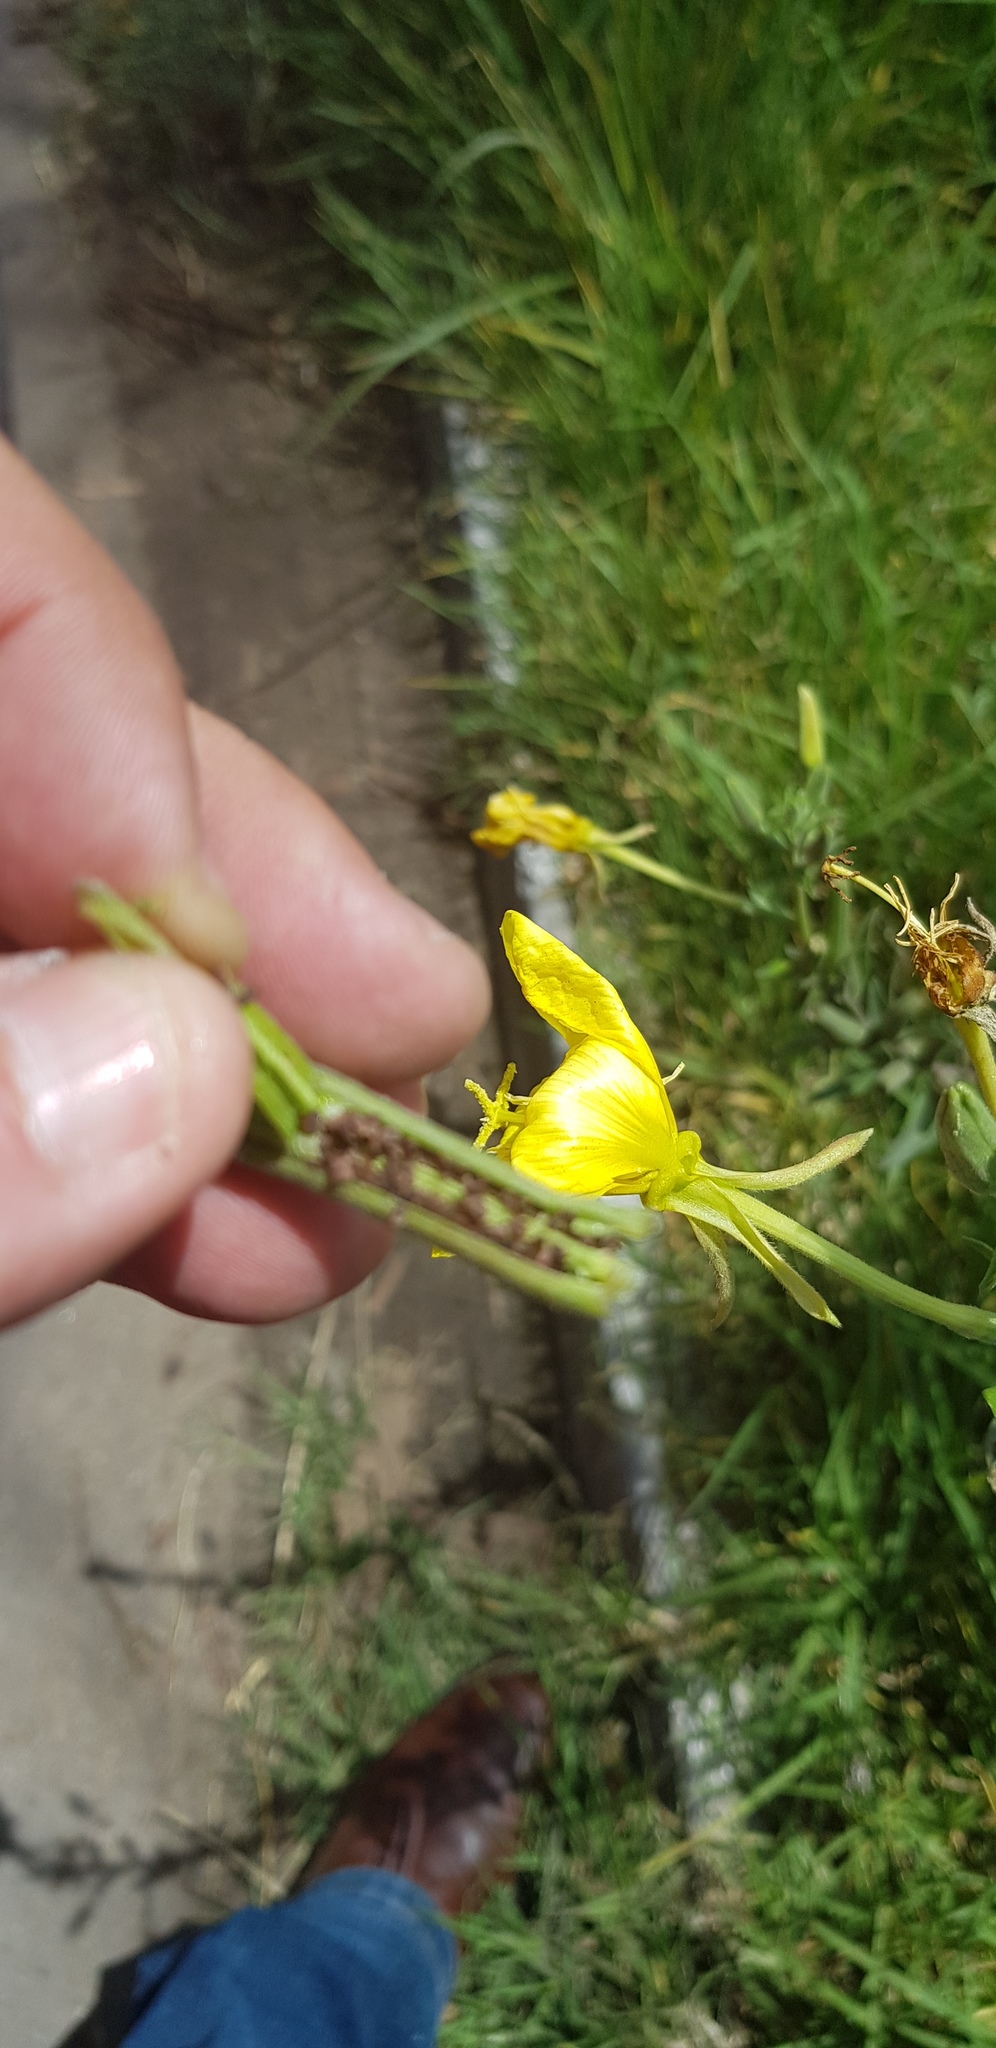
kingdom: Plantae
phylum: Tracheophyta
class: Magnoliopsida
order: Myrtales
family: Onagraceae
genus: Oenothera
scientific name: Oenothera elata
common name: Hooker's evening-primrose
